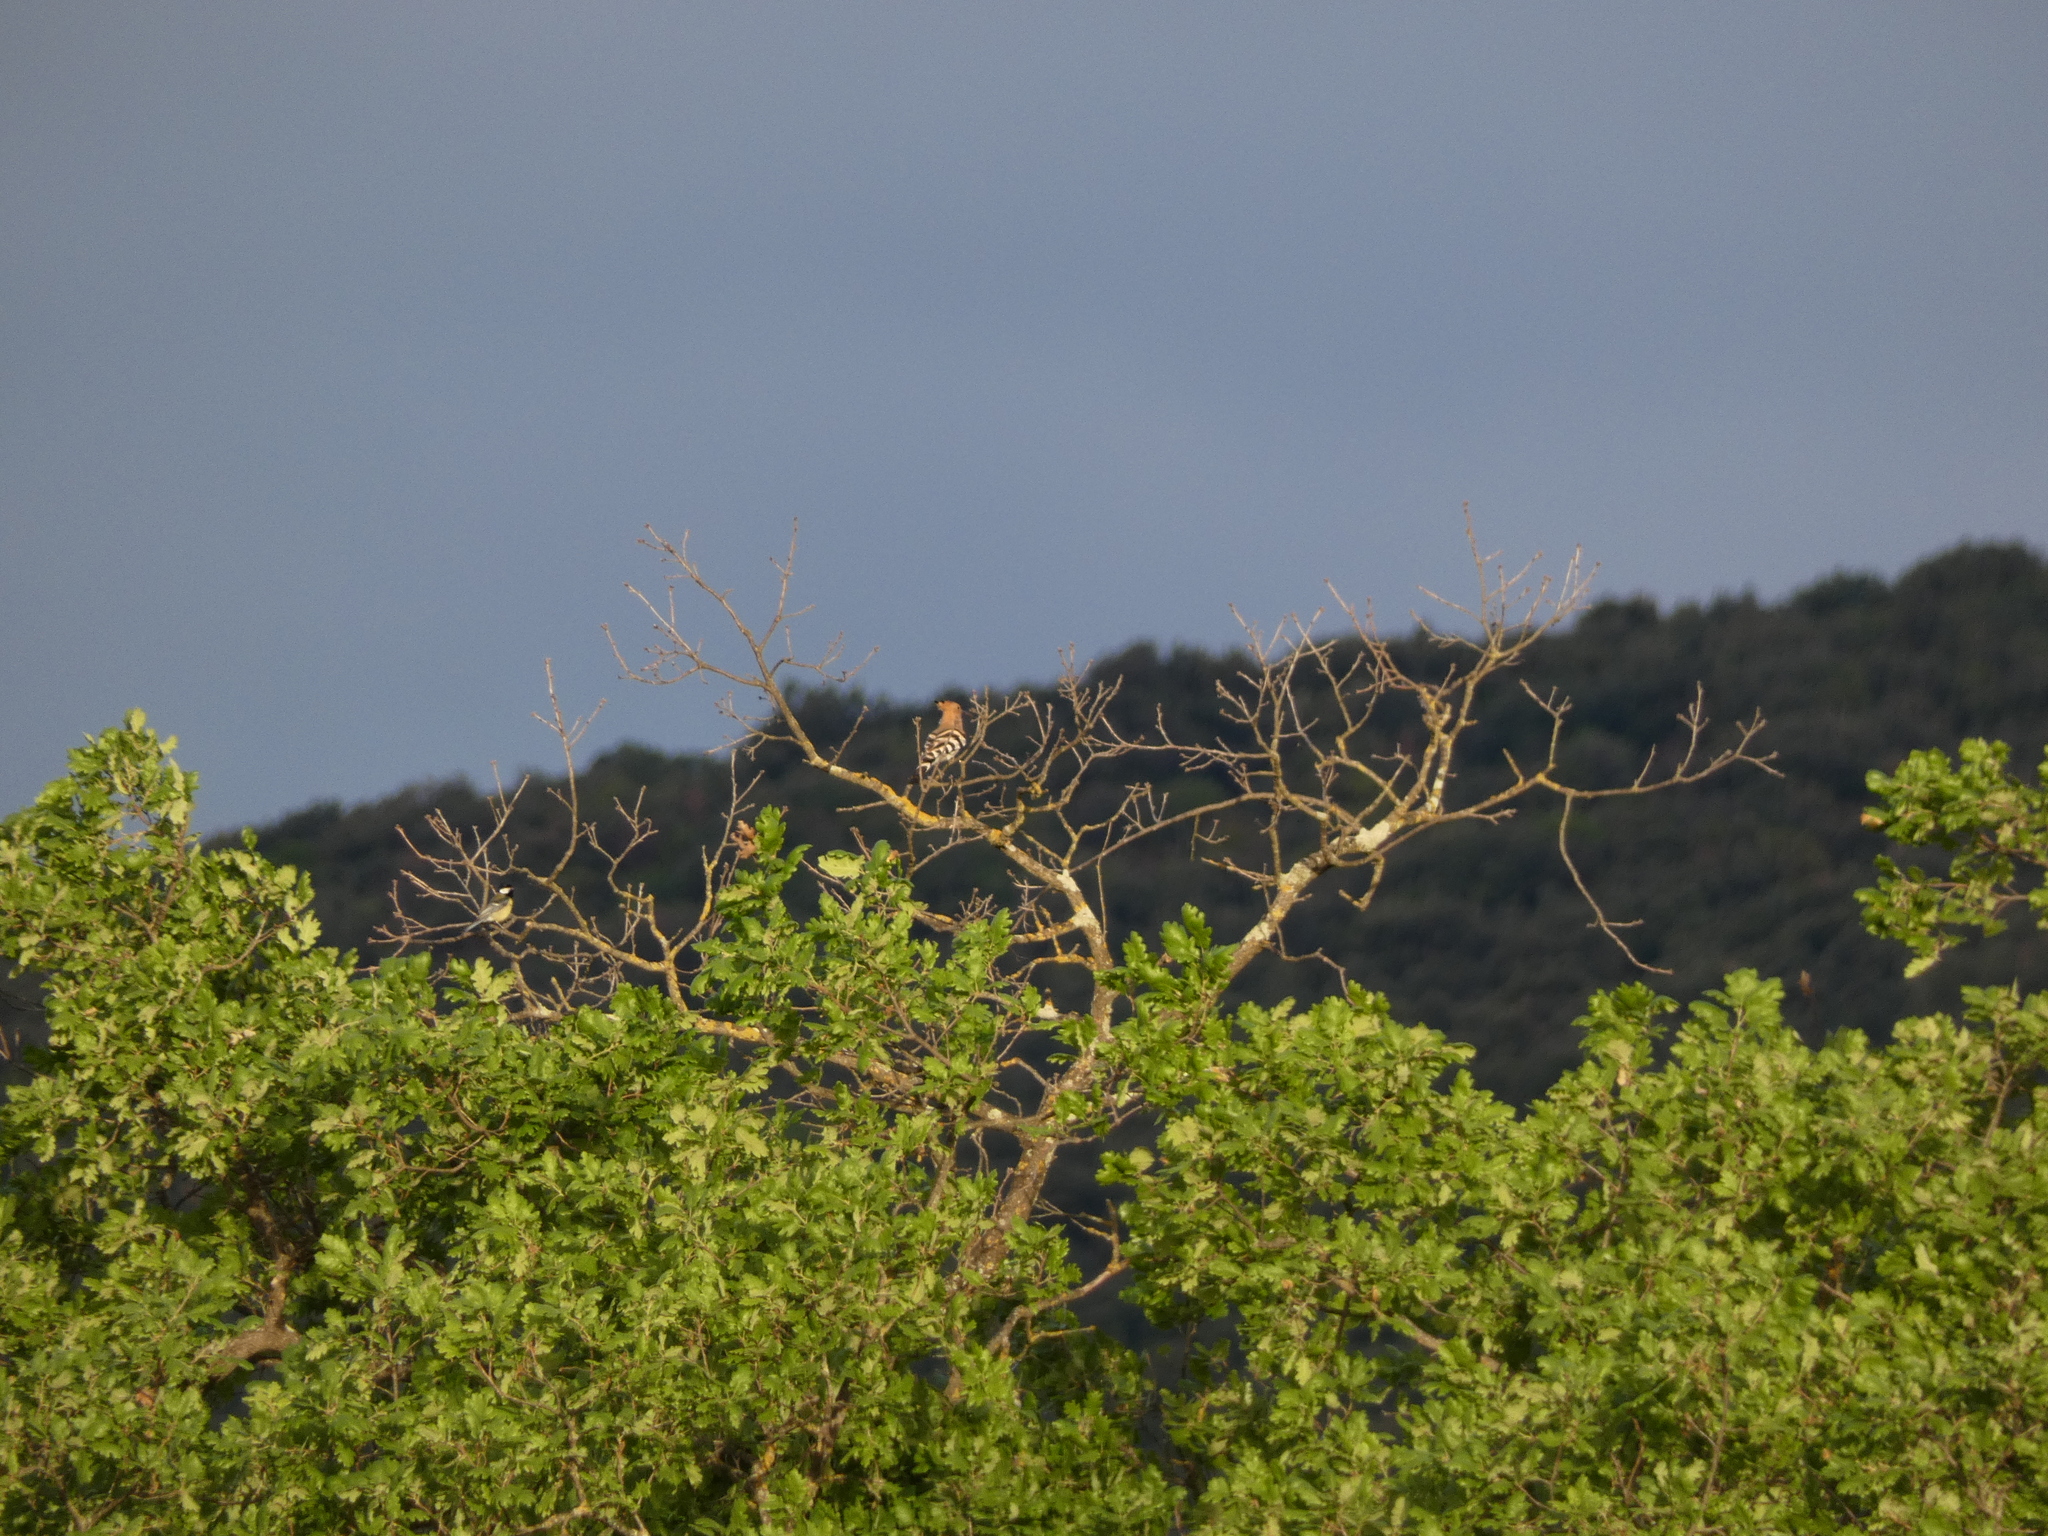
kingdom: Animalia
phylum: Chordata
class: Aves
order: Bucerotiformes
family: Upupidae
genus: Upupa
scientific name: Upupa epops
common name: Eurasian hoopoe
